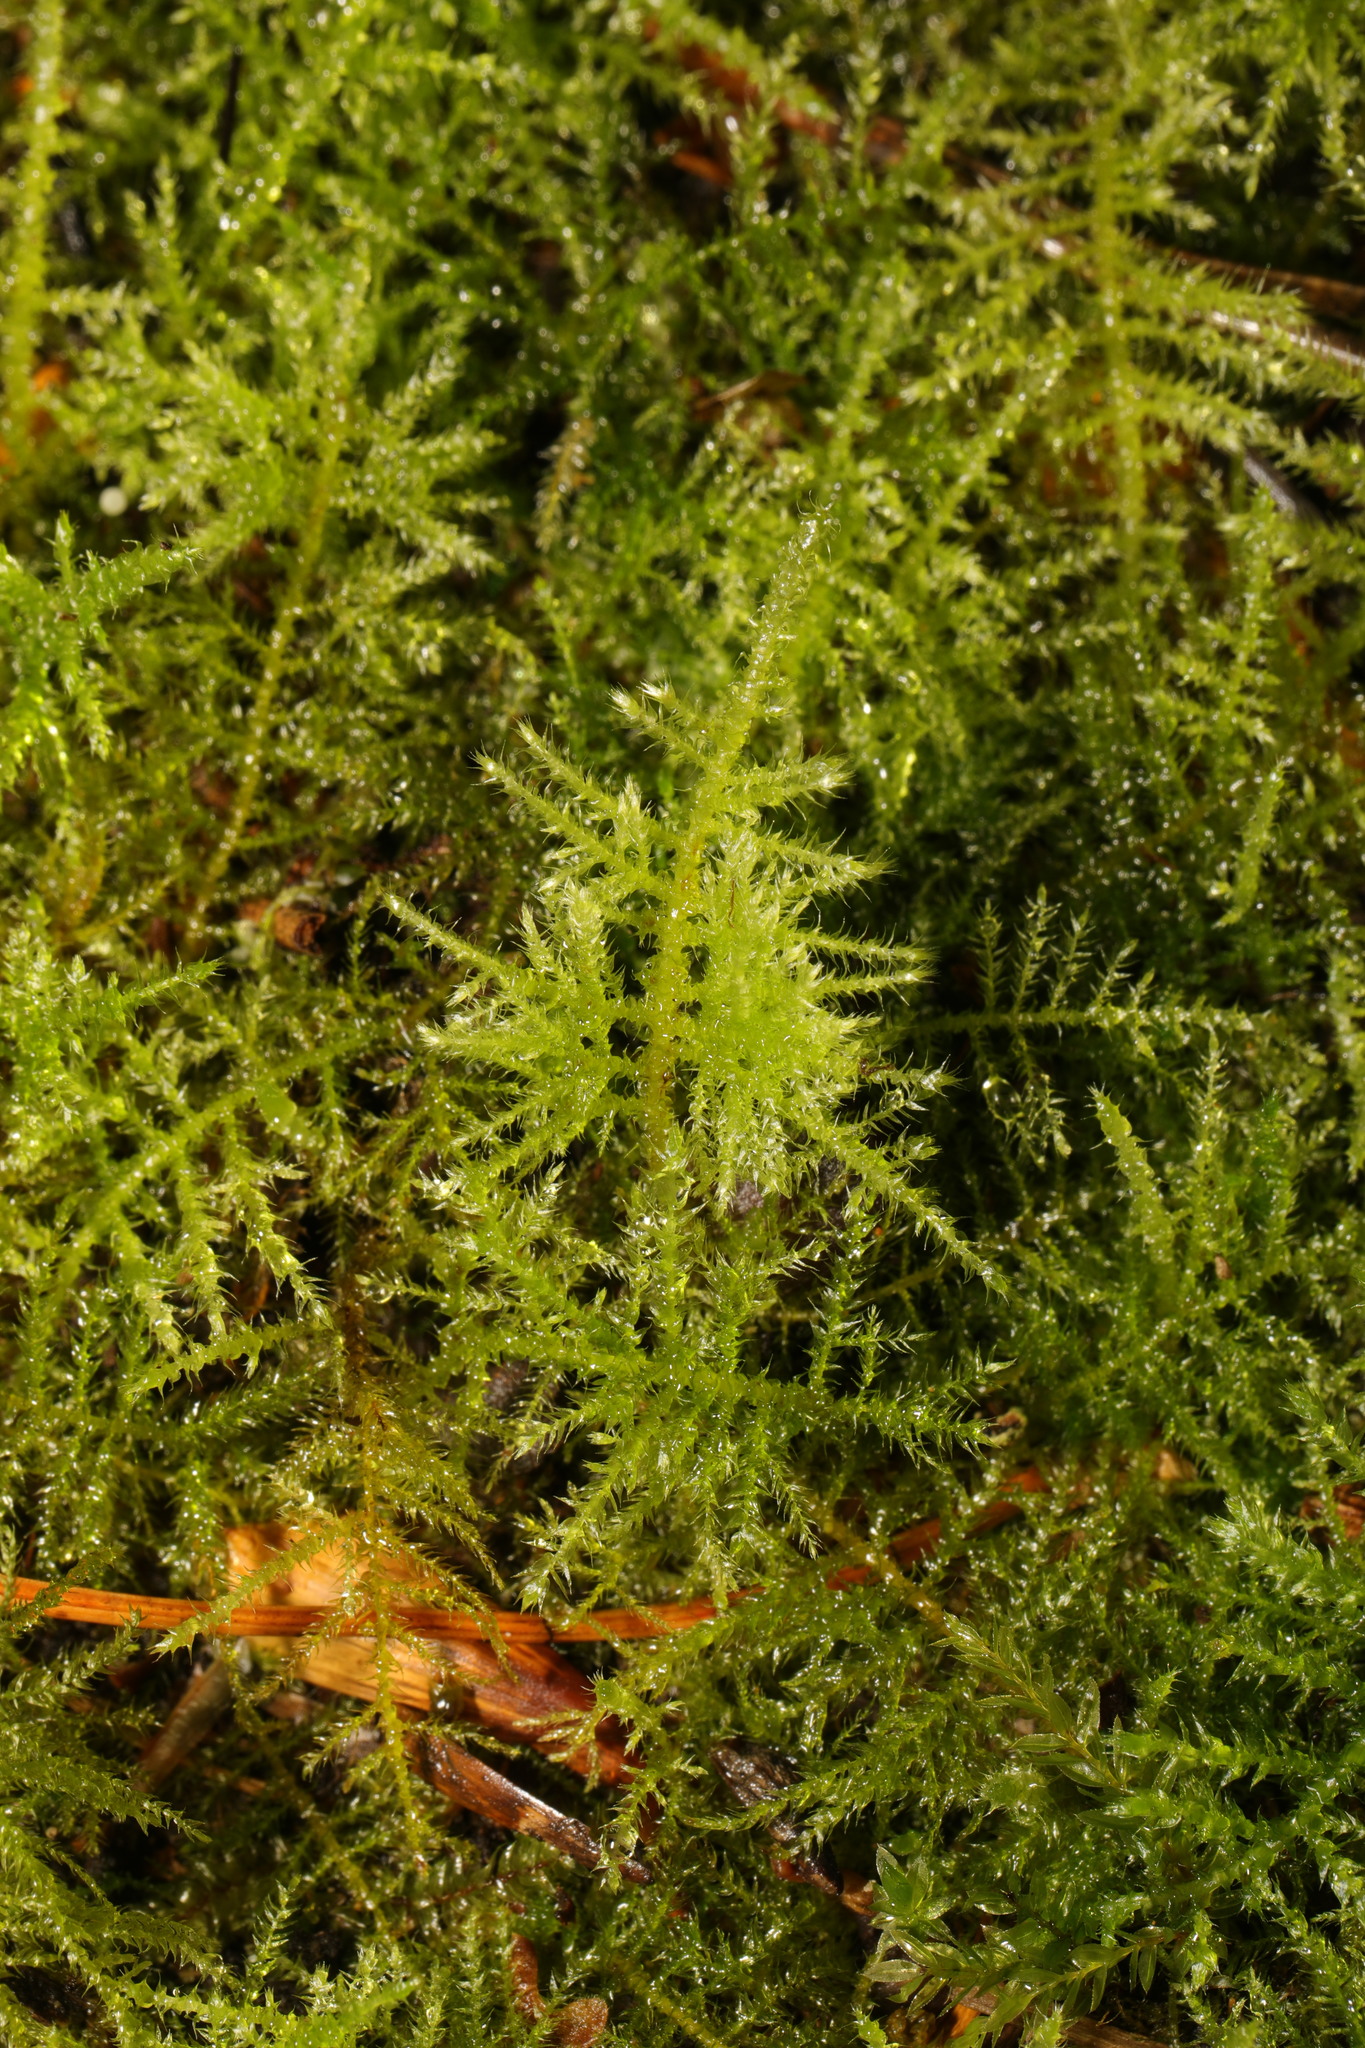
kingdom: Plantae
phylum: Bryophyta
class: Bryopsida
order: Hypnales
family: Brachytheciaceae
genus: Kindbergia
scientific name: Kindbergia praelonga
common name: Slender beaked moss
